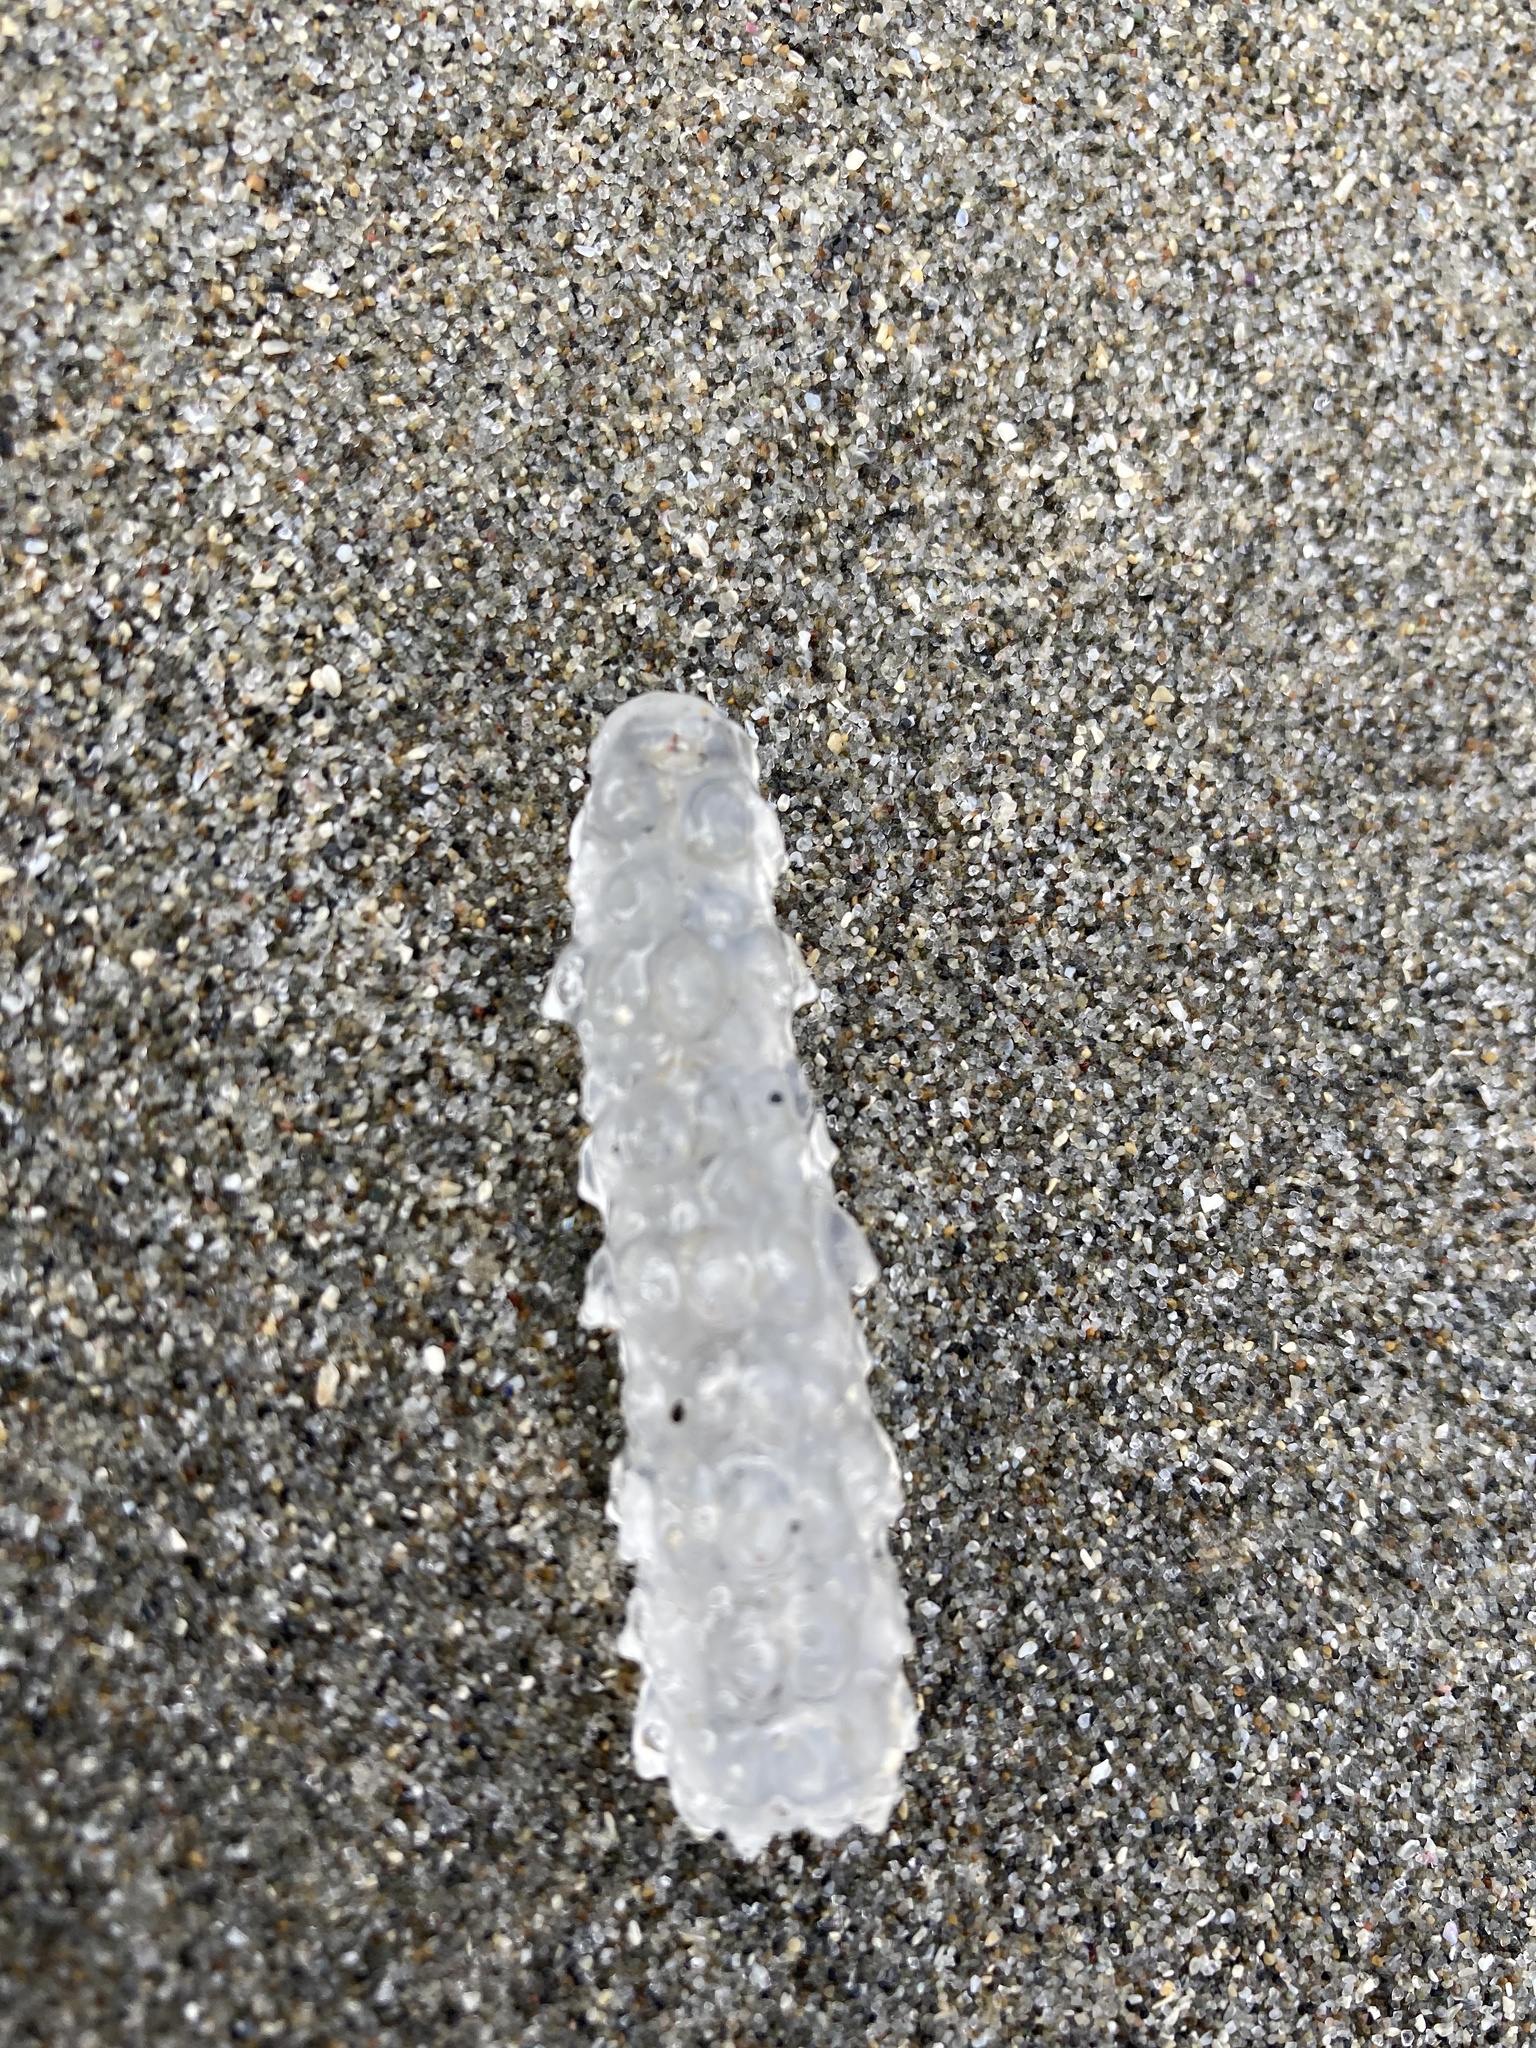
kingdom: Animalia
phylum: Chordata
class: Thaliacea
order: Pyrosomatida
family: Pyrosomatidae
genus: Pyrosoma
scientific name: Pyrosoma atlanticum
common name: Atlantic pyrosomes
